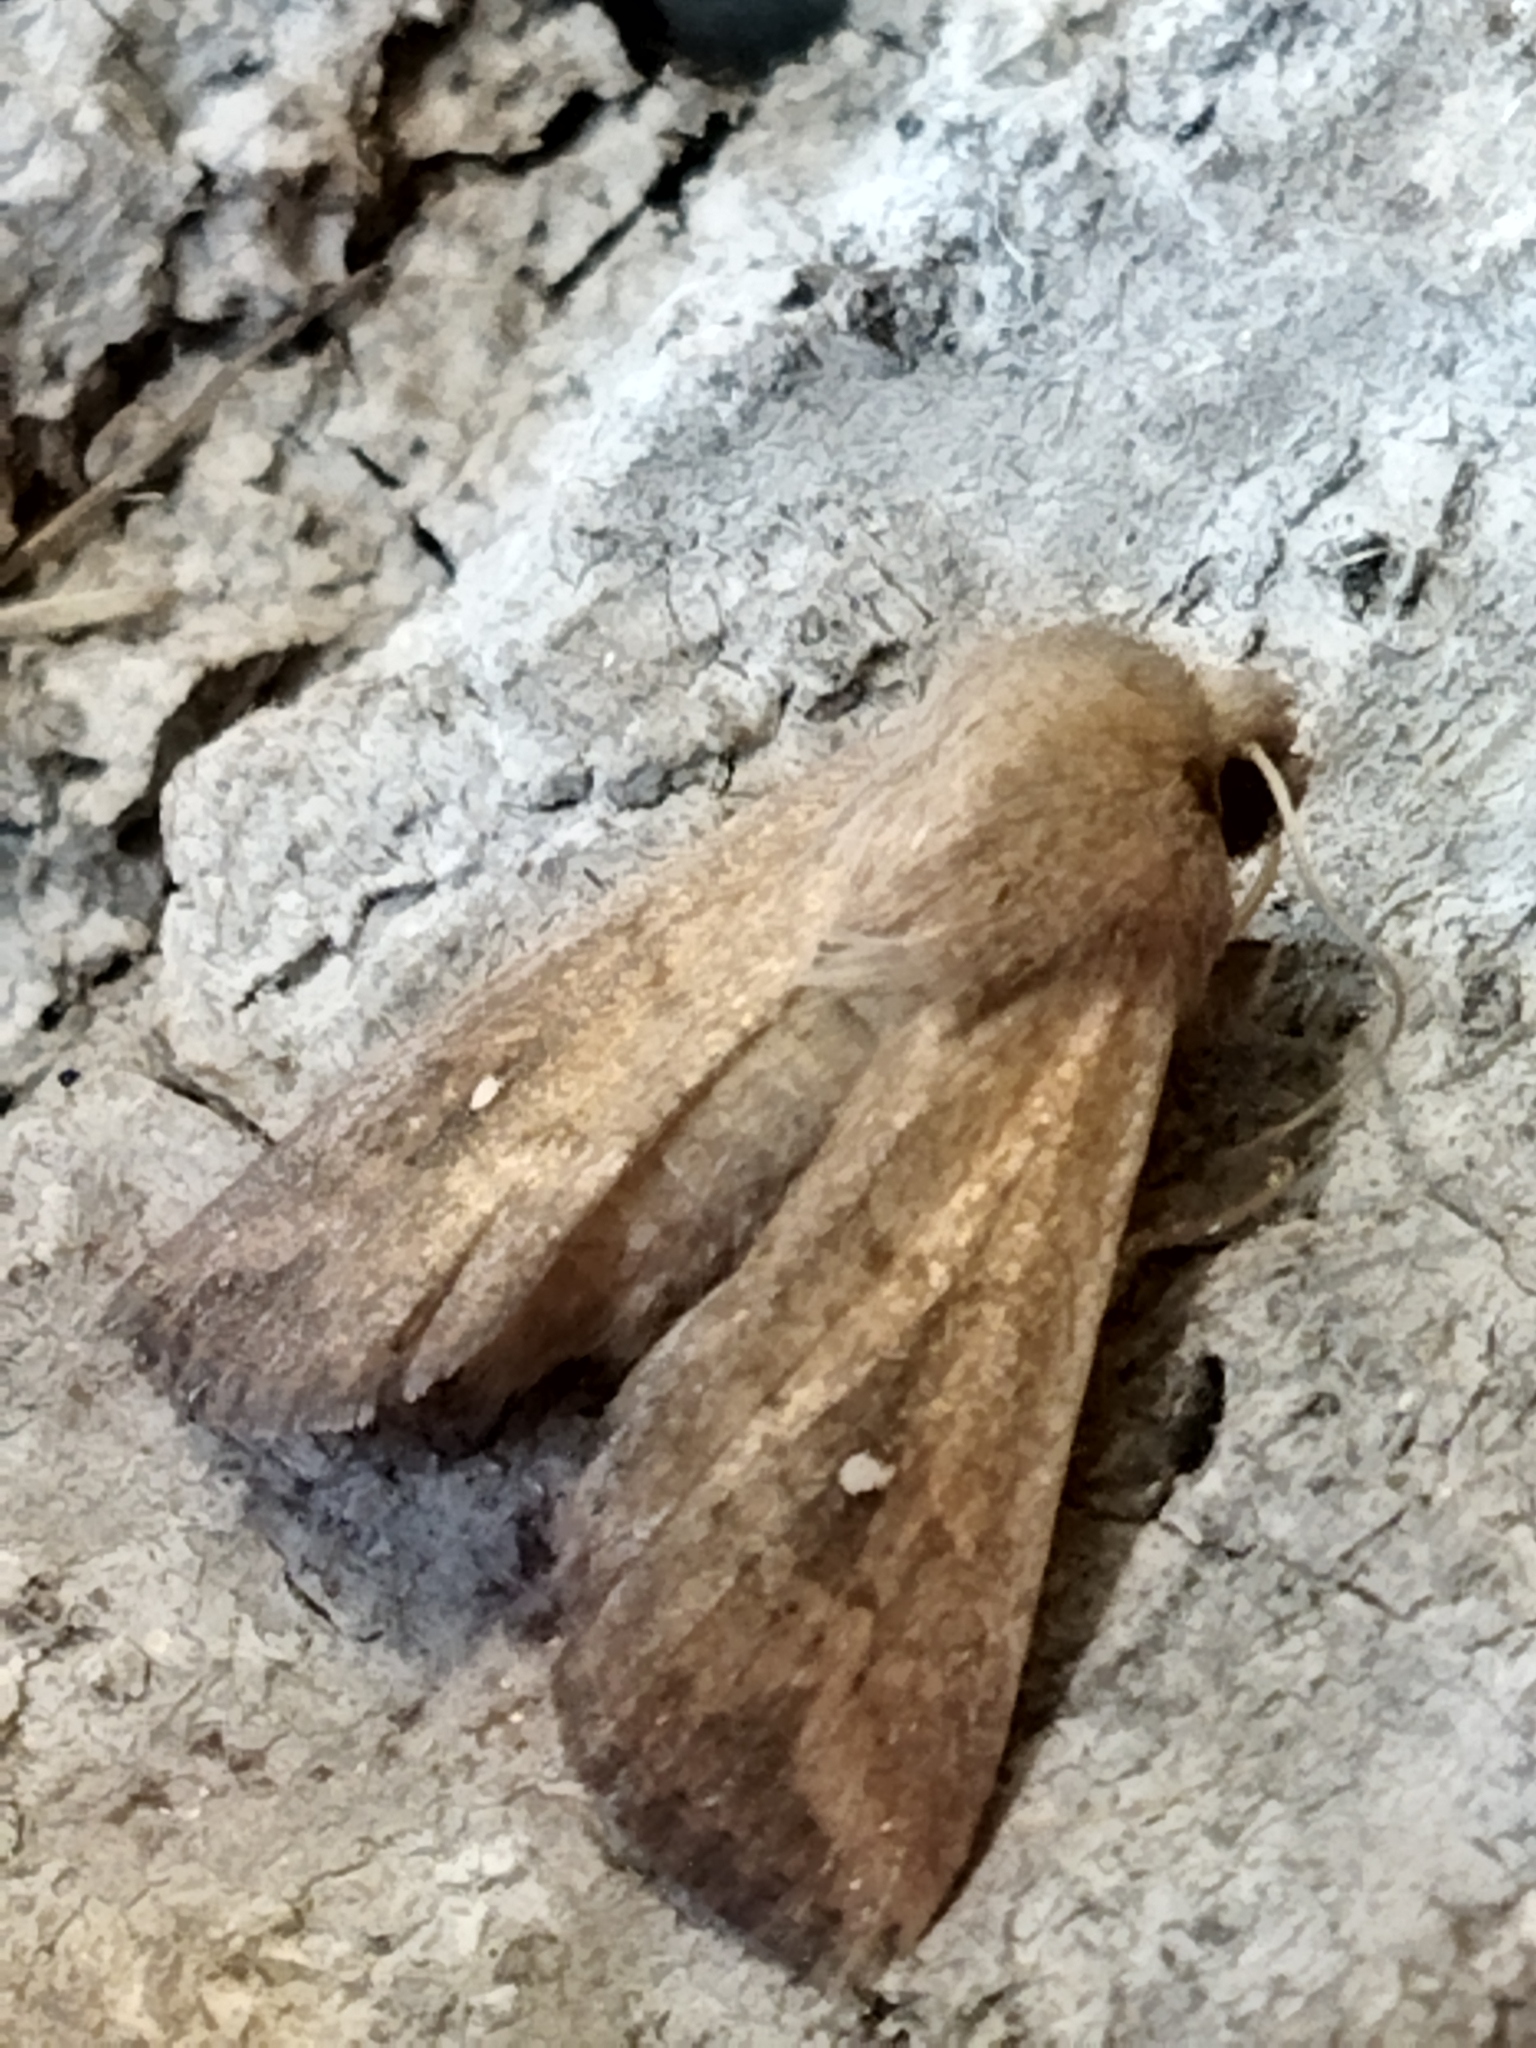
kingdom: Animalia
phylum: Arthropoda
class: Insecta
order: Lepidoptera
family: Noctuidae
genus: Mythimna
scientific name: Mythimna albipuncta
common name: White-point
